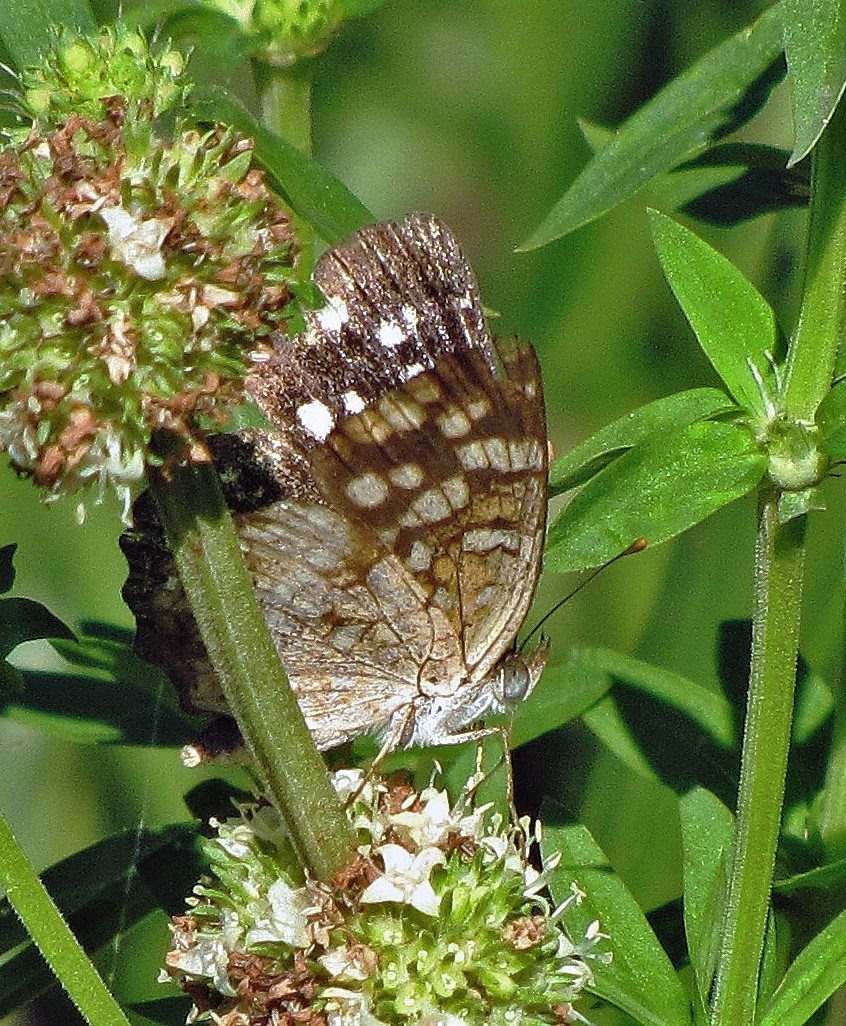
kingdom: Animalia
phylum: Arthropoda
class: Insecta
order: Lepidoptera
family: Nymphalidae
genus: Anthanassa
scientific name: Anthanassa hermas
